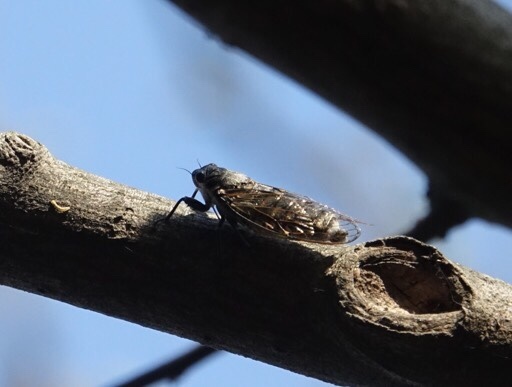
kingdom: Animalia
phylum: Arthropoda
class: Insecta
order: Hemiptera
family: Cicadidae
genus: Yezoterpnosia
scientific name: Yezoterpnosia obscura
